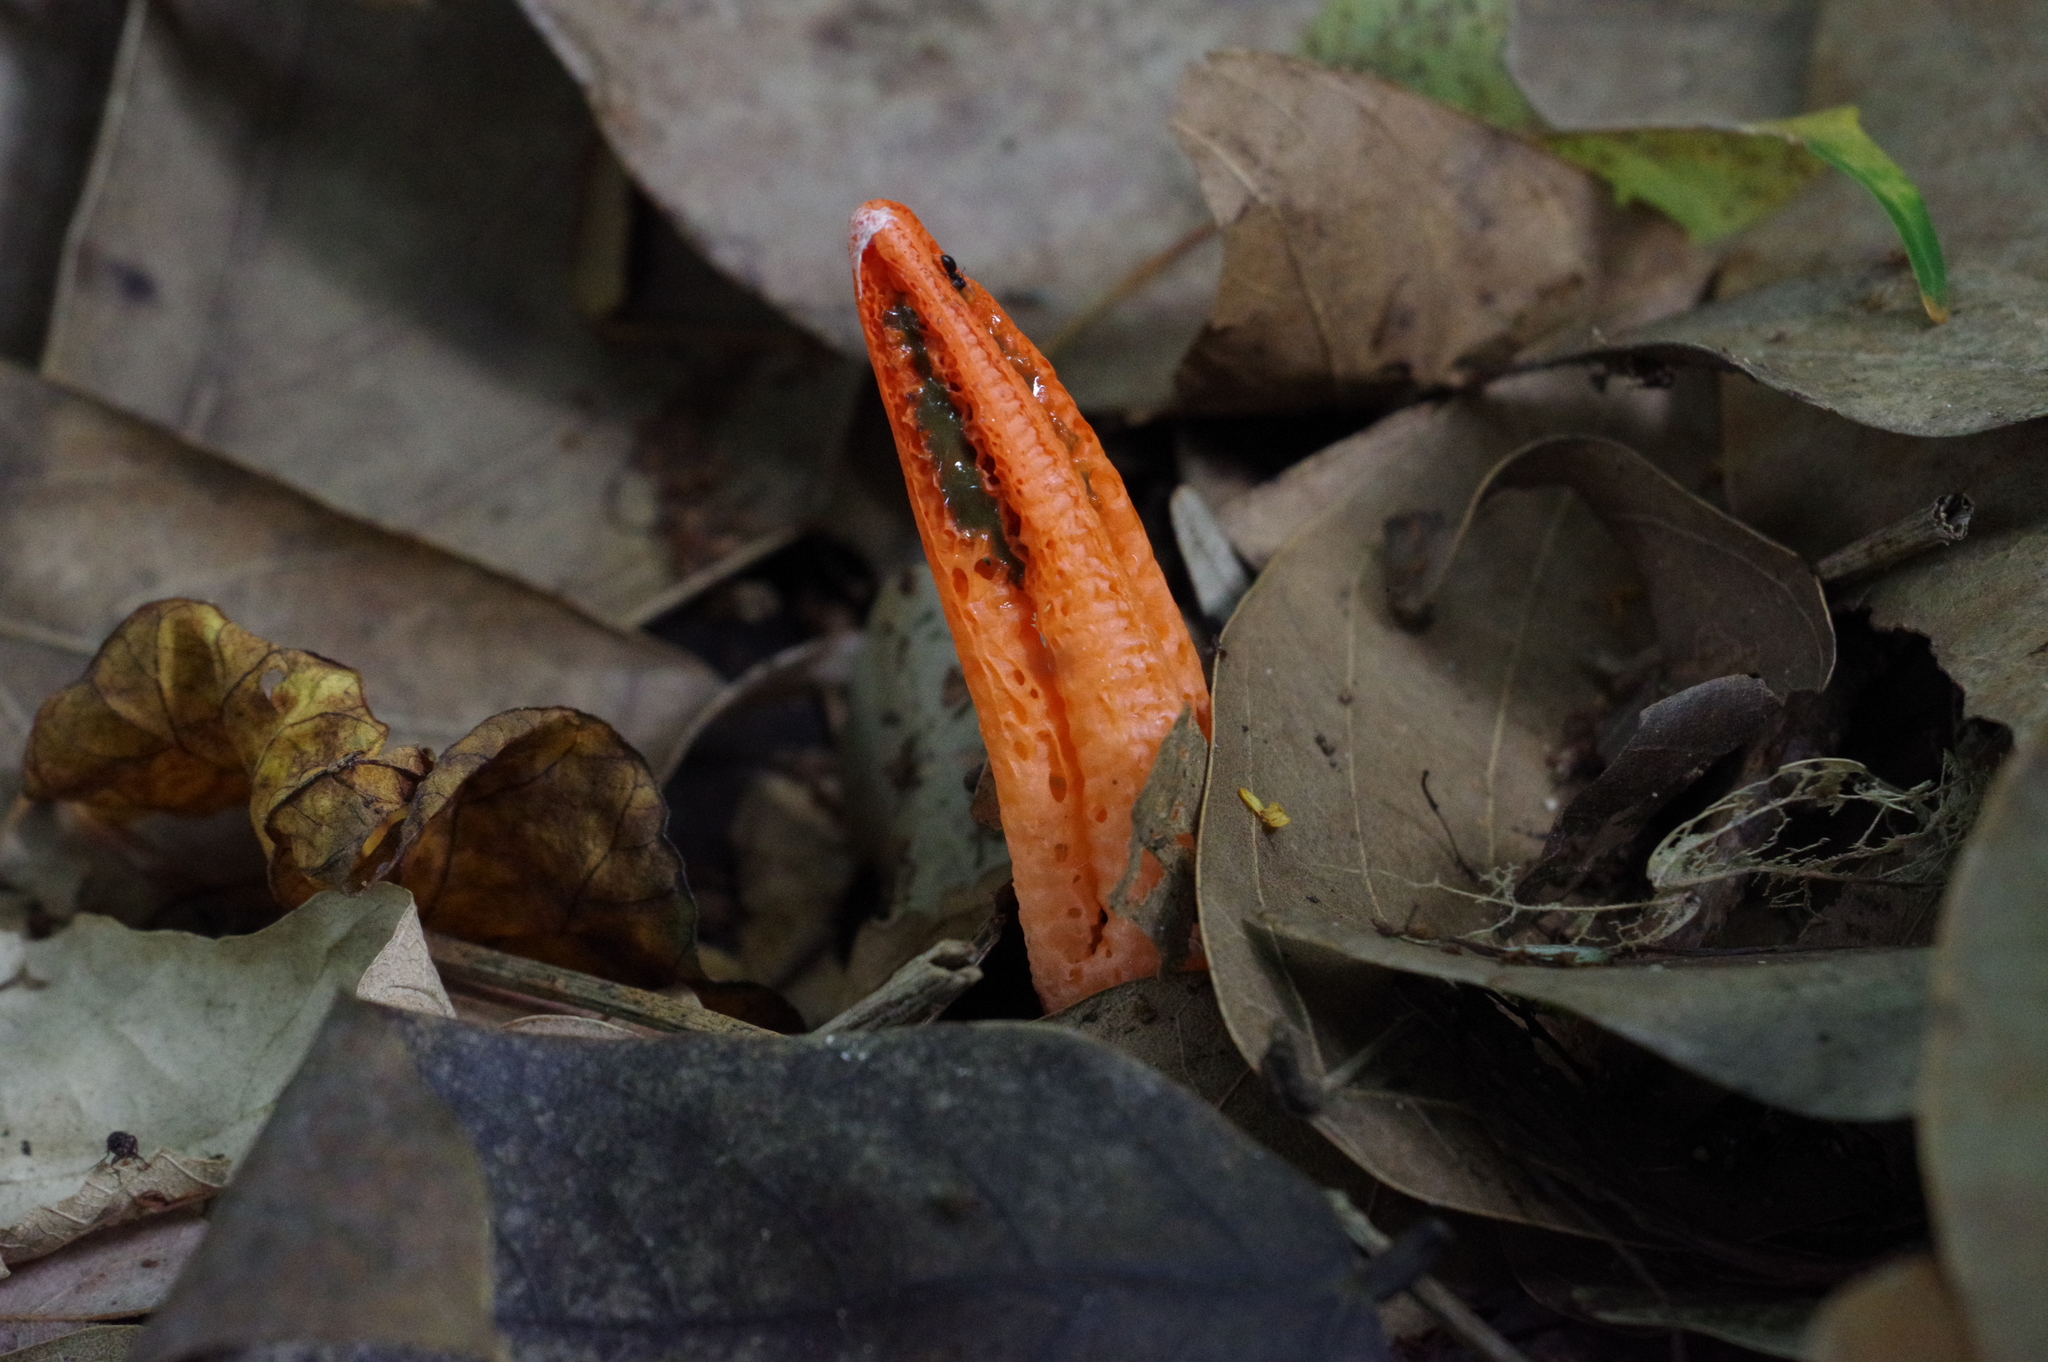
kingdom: Fungi
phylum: Basidiomycota
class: Agaricomycetes
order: Phallales
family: Phallaceae
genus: Pseudocolus
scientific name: Pseudocolus fusiformis
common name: Stinky squid
